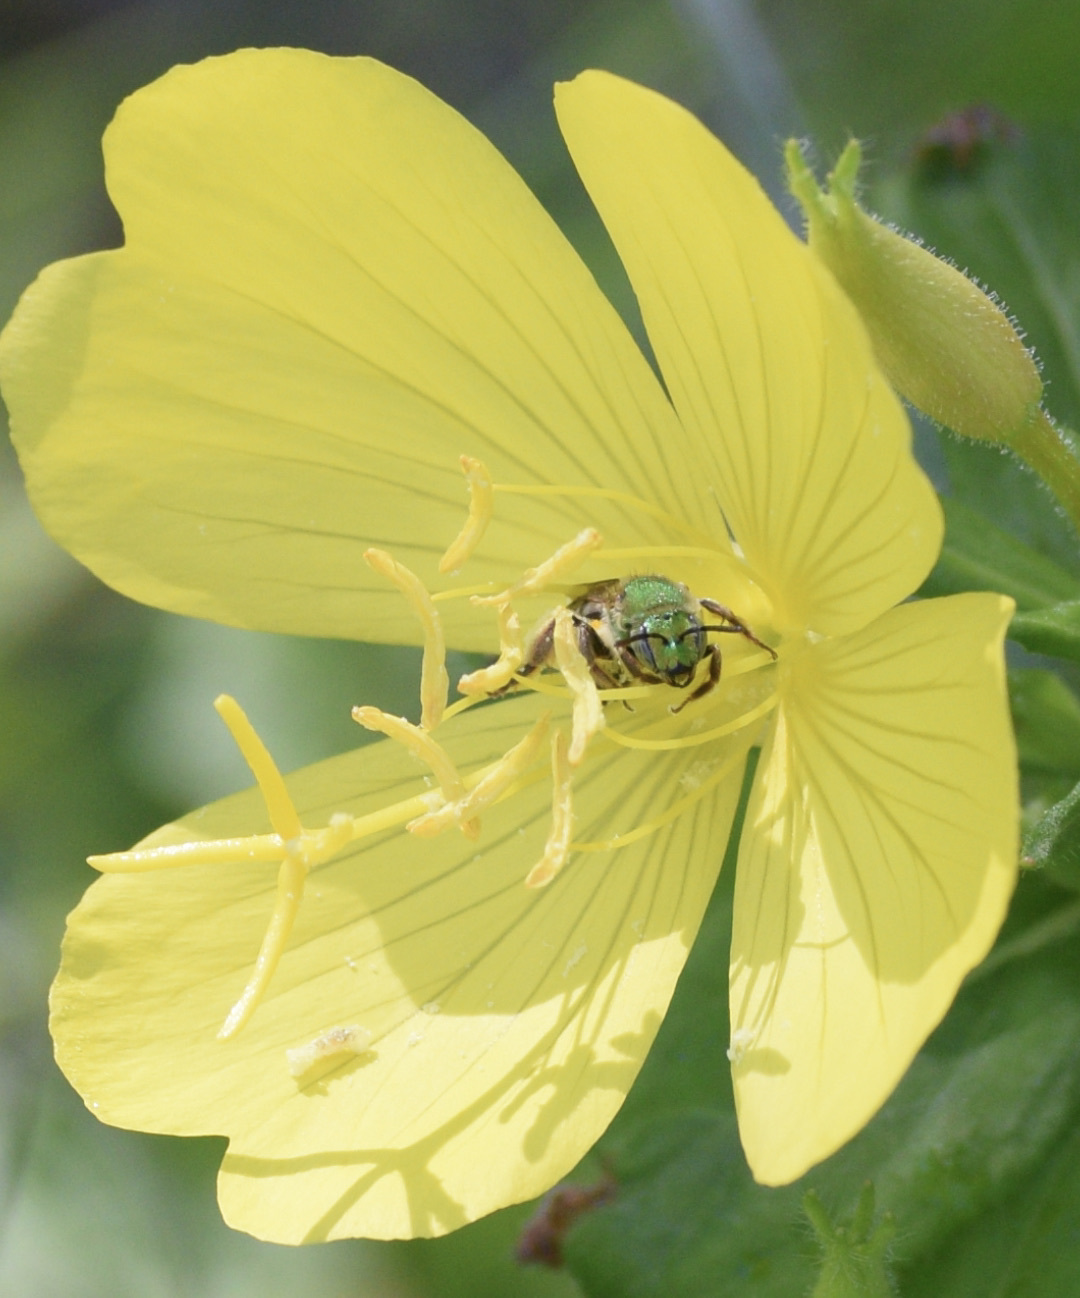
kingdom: Animalia
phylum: Arthropoda
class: Insecta
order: Hymenoptera
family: Halictidae
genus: Agapostemon
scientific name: Agapostemon virescens
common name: Bicolored striped sweat bee
